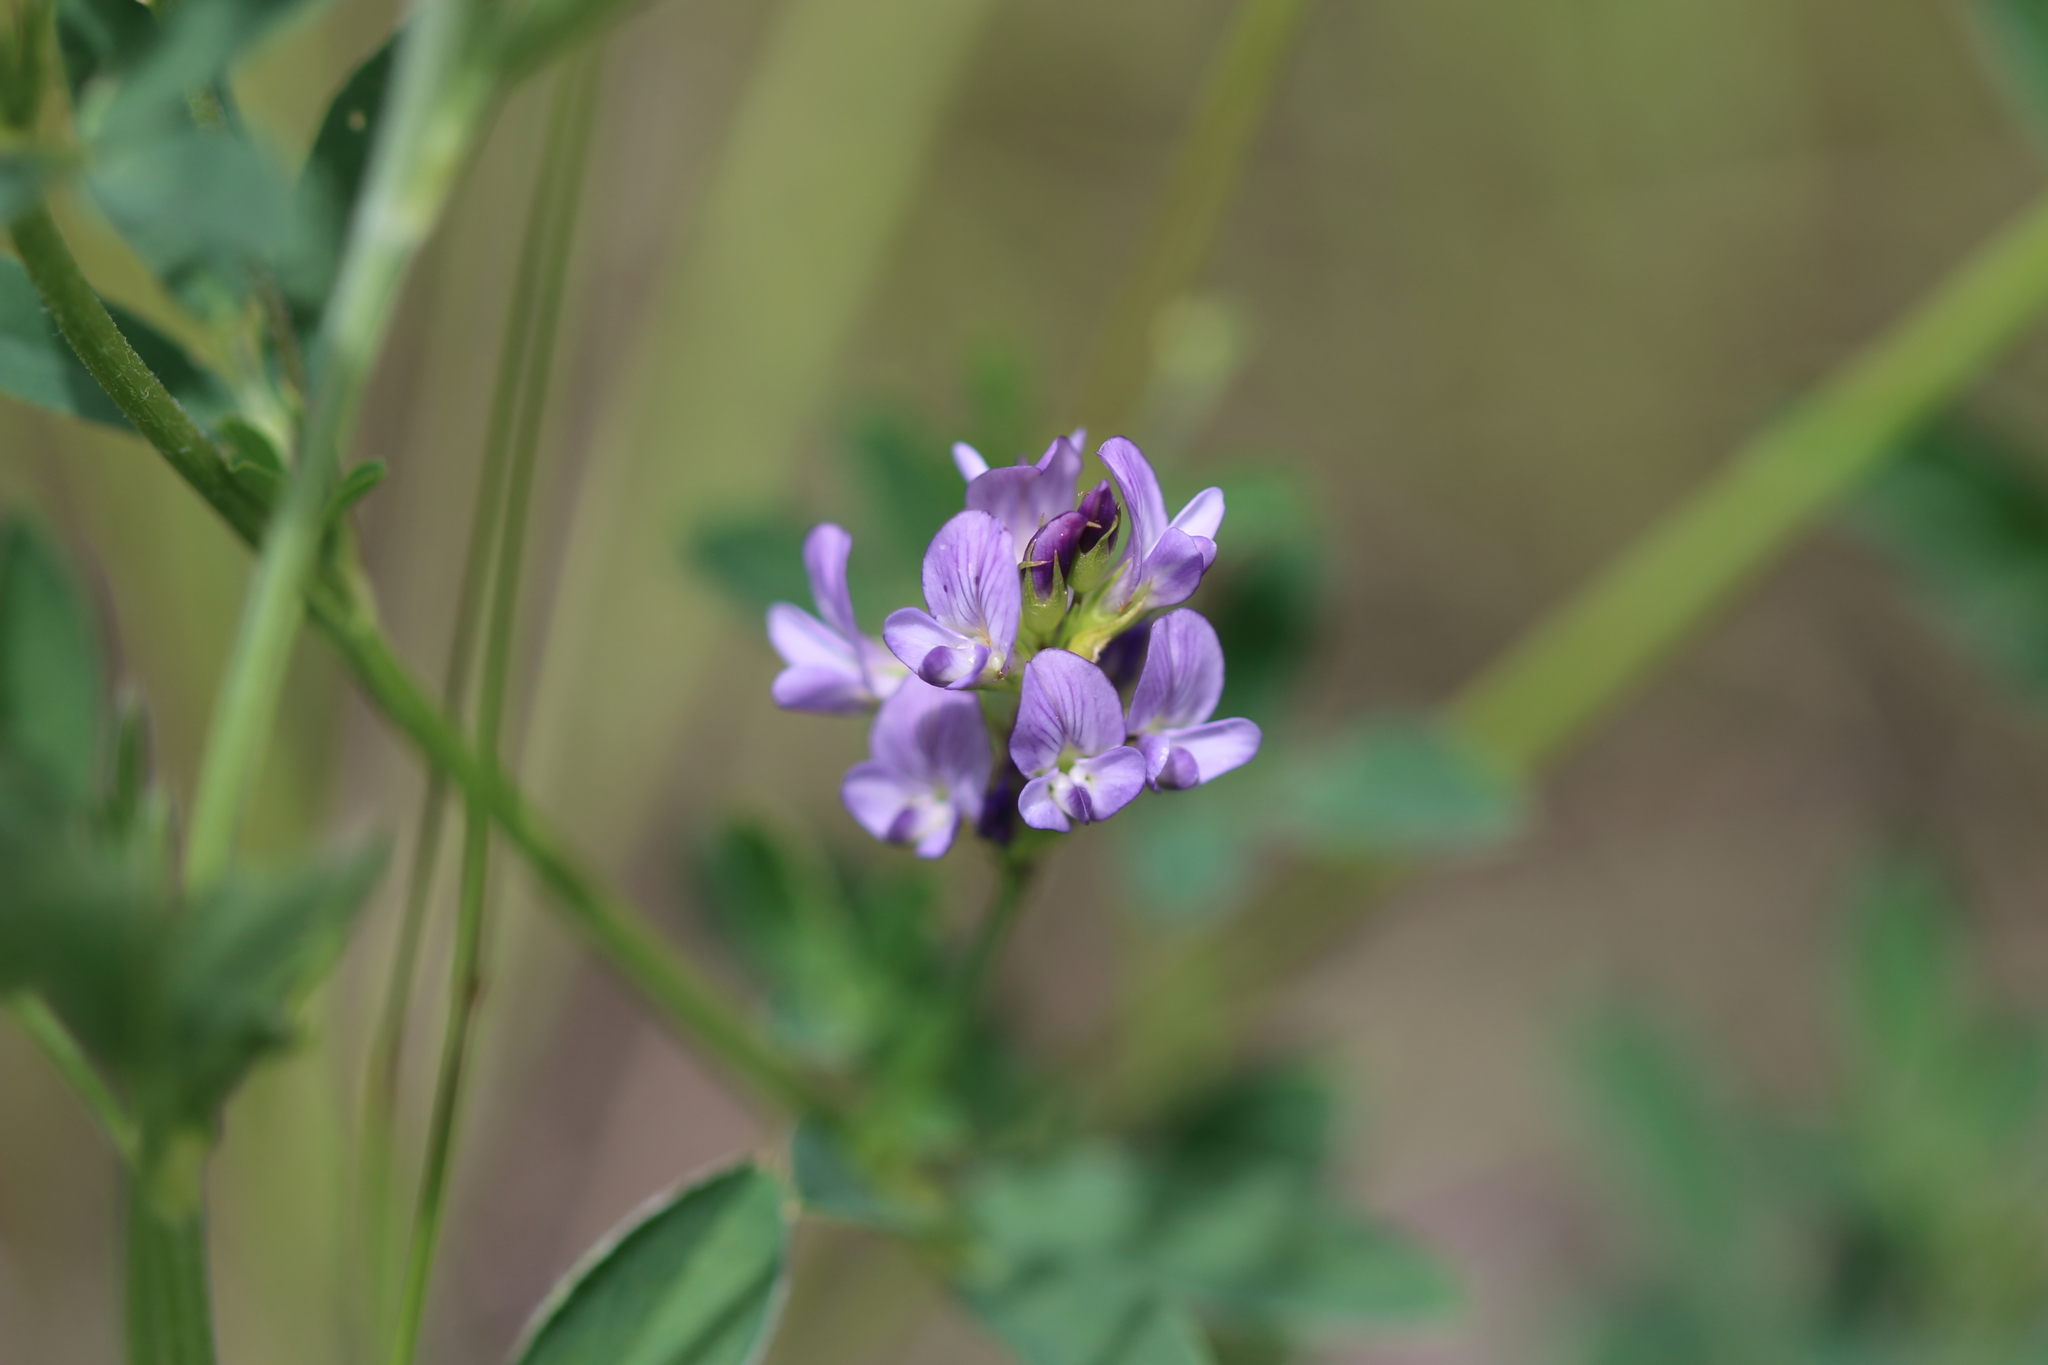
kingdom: Plantae
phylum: Tracheophyta
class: Magnoliopsida
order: Fabales
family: Fabaceae
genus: Medicago
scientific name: Medicago sativa
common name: Alfalfa
